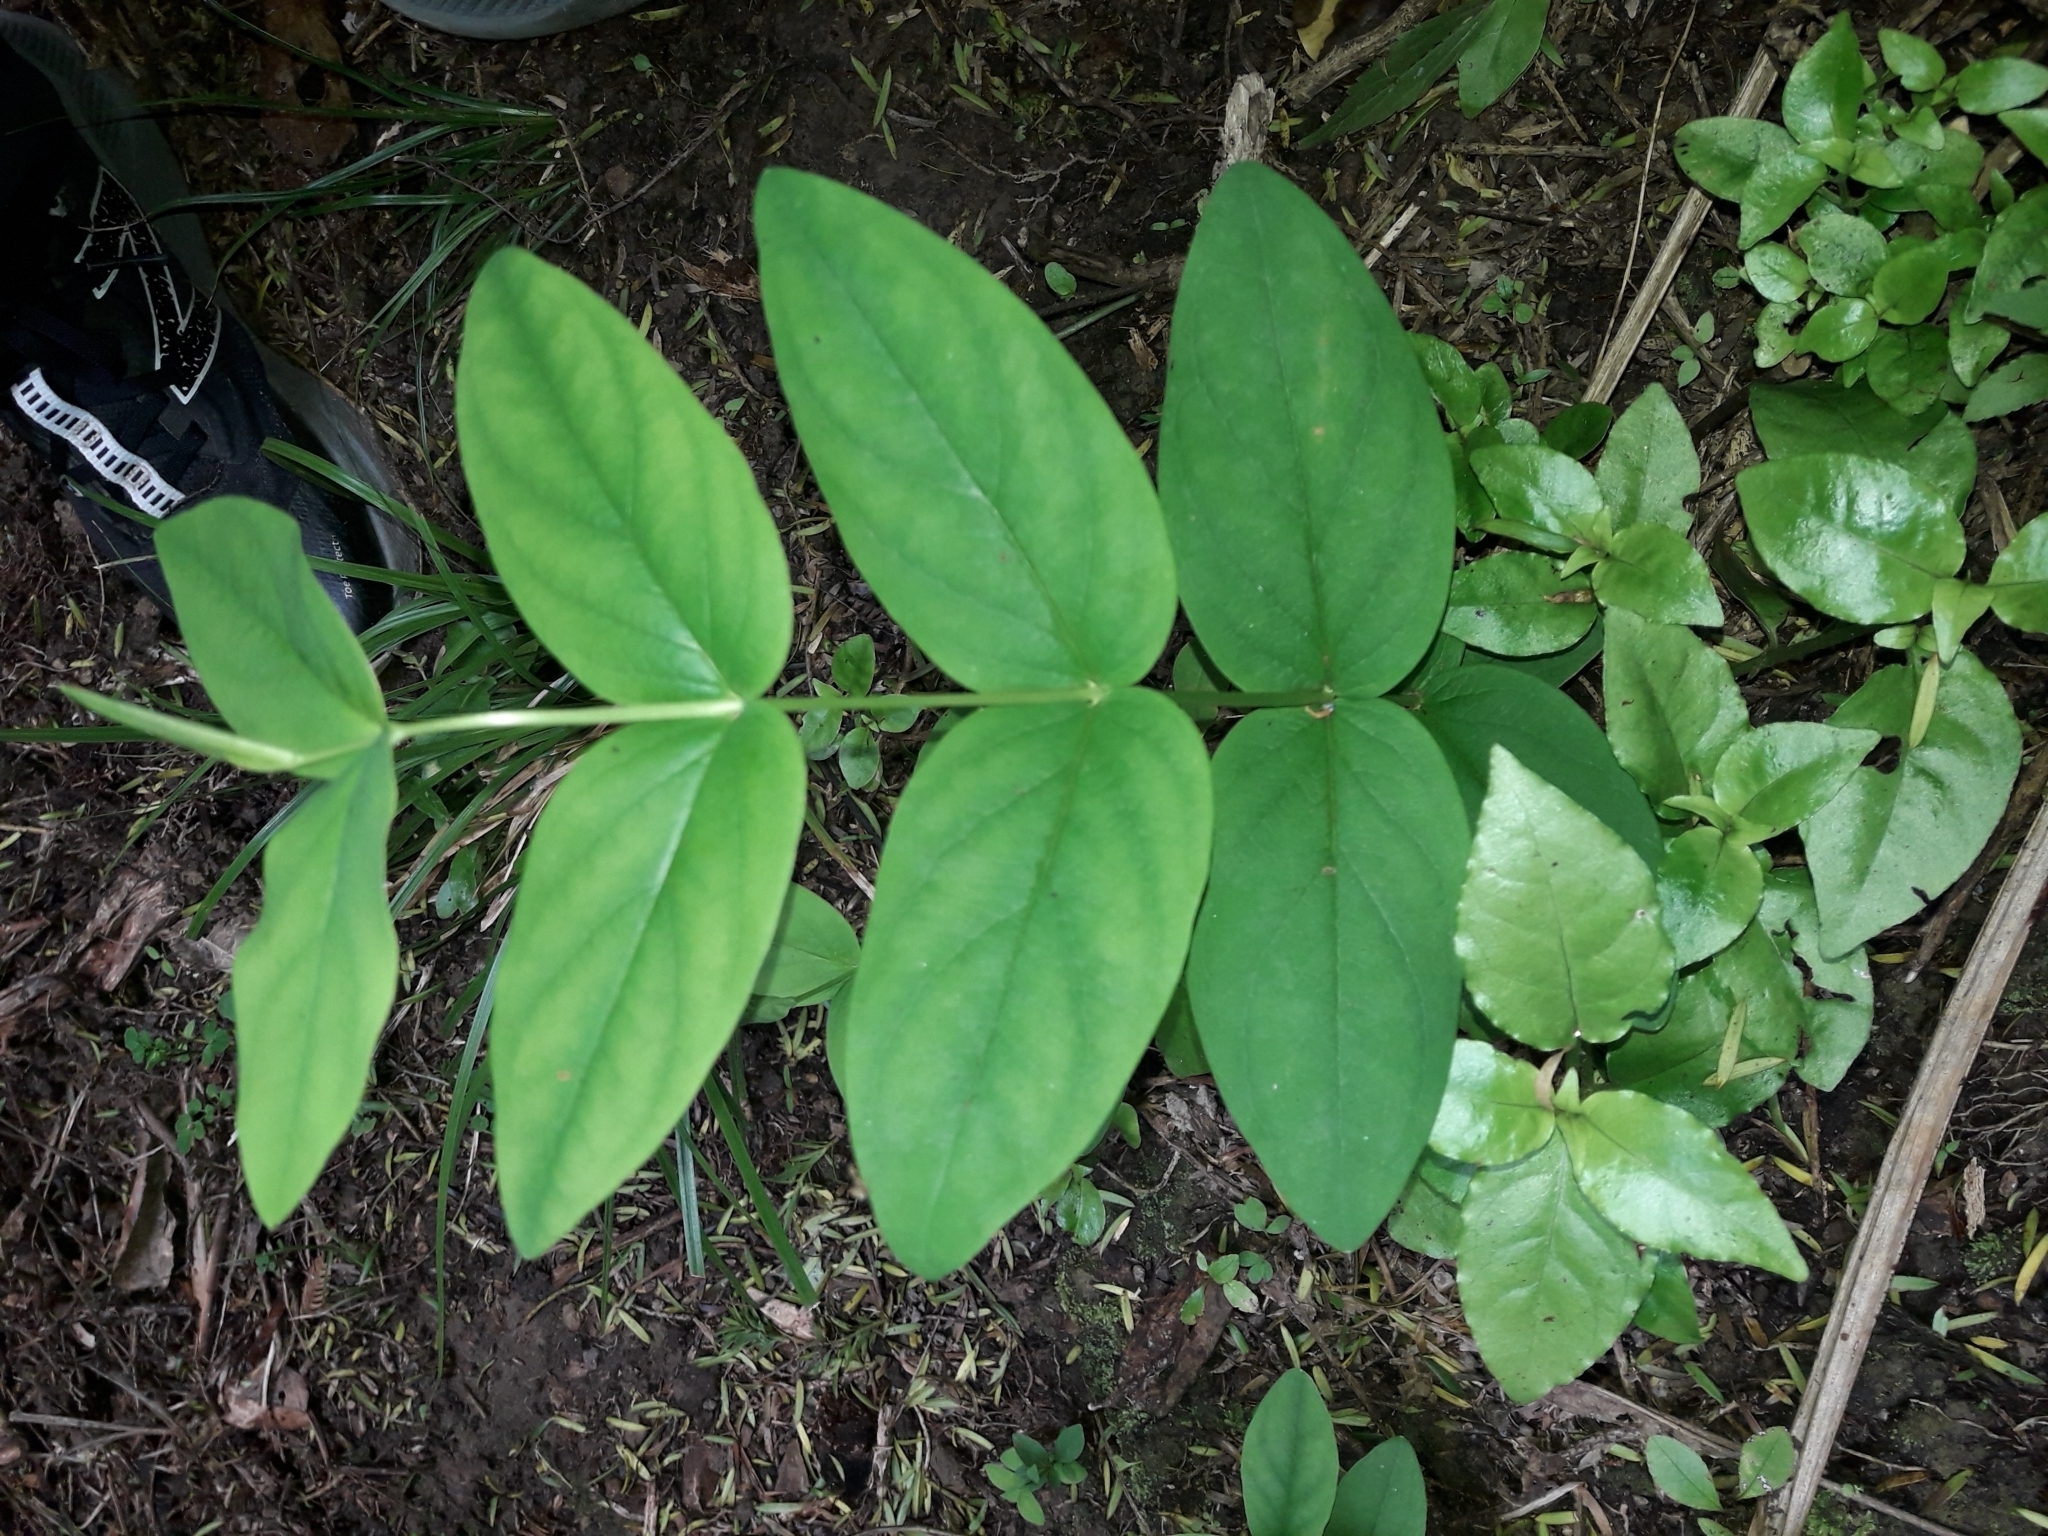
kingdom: Plantae
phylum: Tracheophyta
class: Magnoliopsida
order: Malpighiales
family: Hypericaceae
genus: Hypericum
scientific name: Hypericum androsaemum
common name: Sweet-amber
